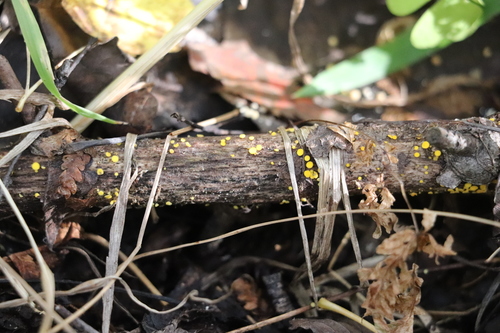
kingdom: Fungi
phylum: Ascomycota
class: Leotiomycetes
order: Helotiales
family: Pezizellaceae
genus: Calycina
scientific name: Calycina citrina
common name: Yellow fairy cups
